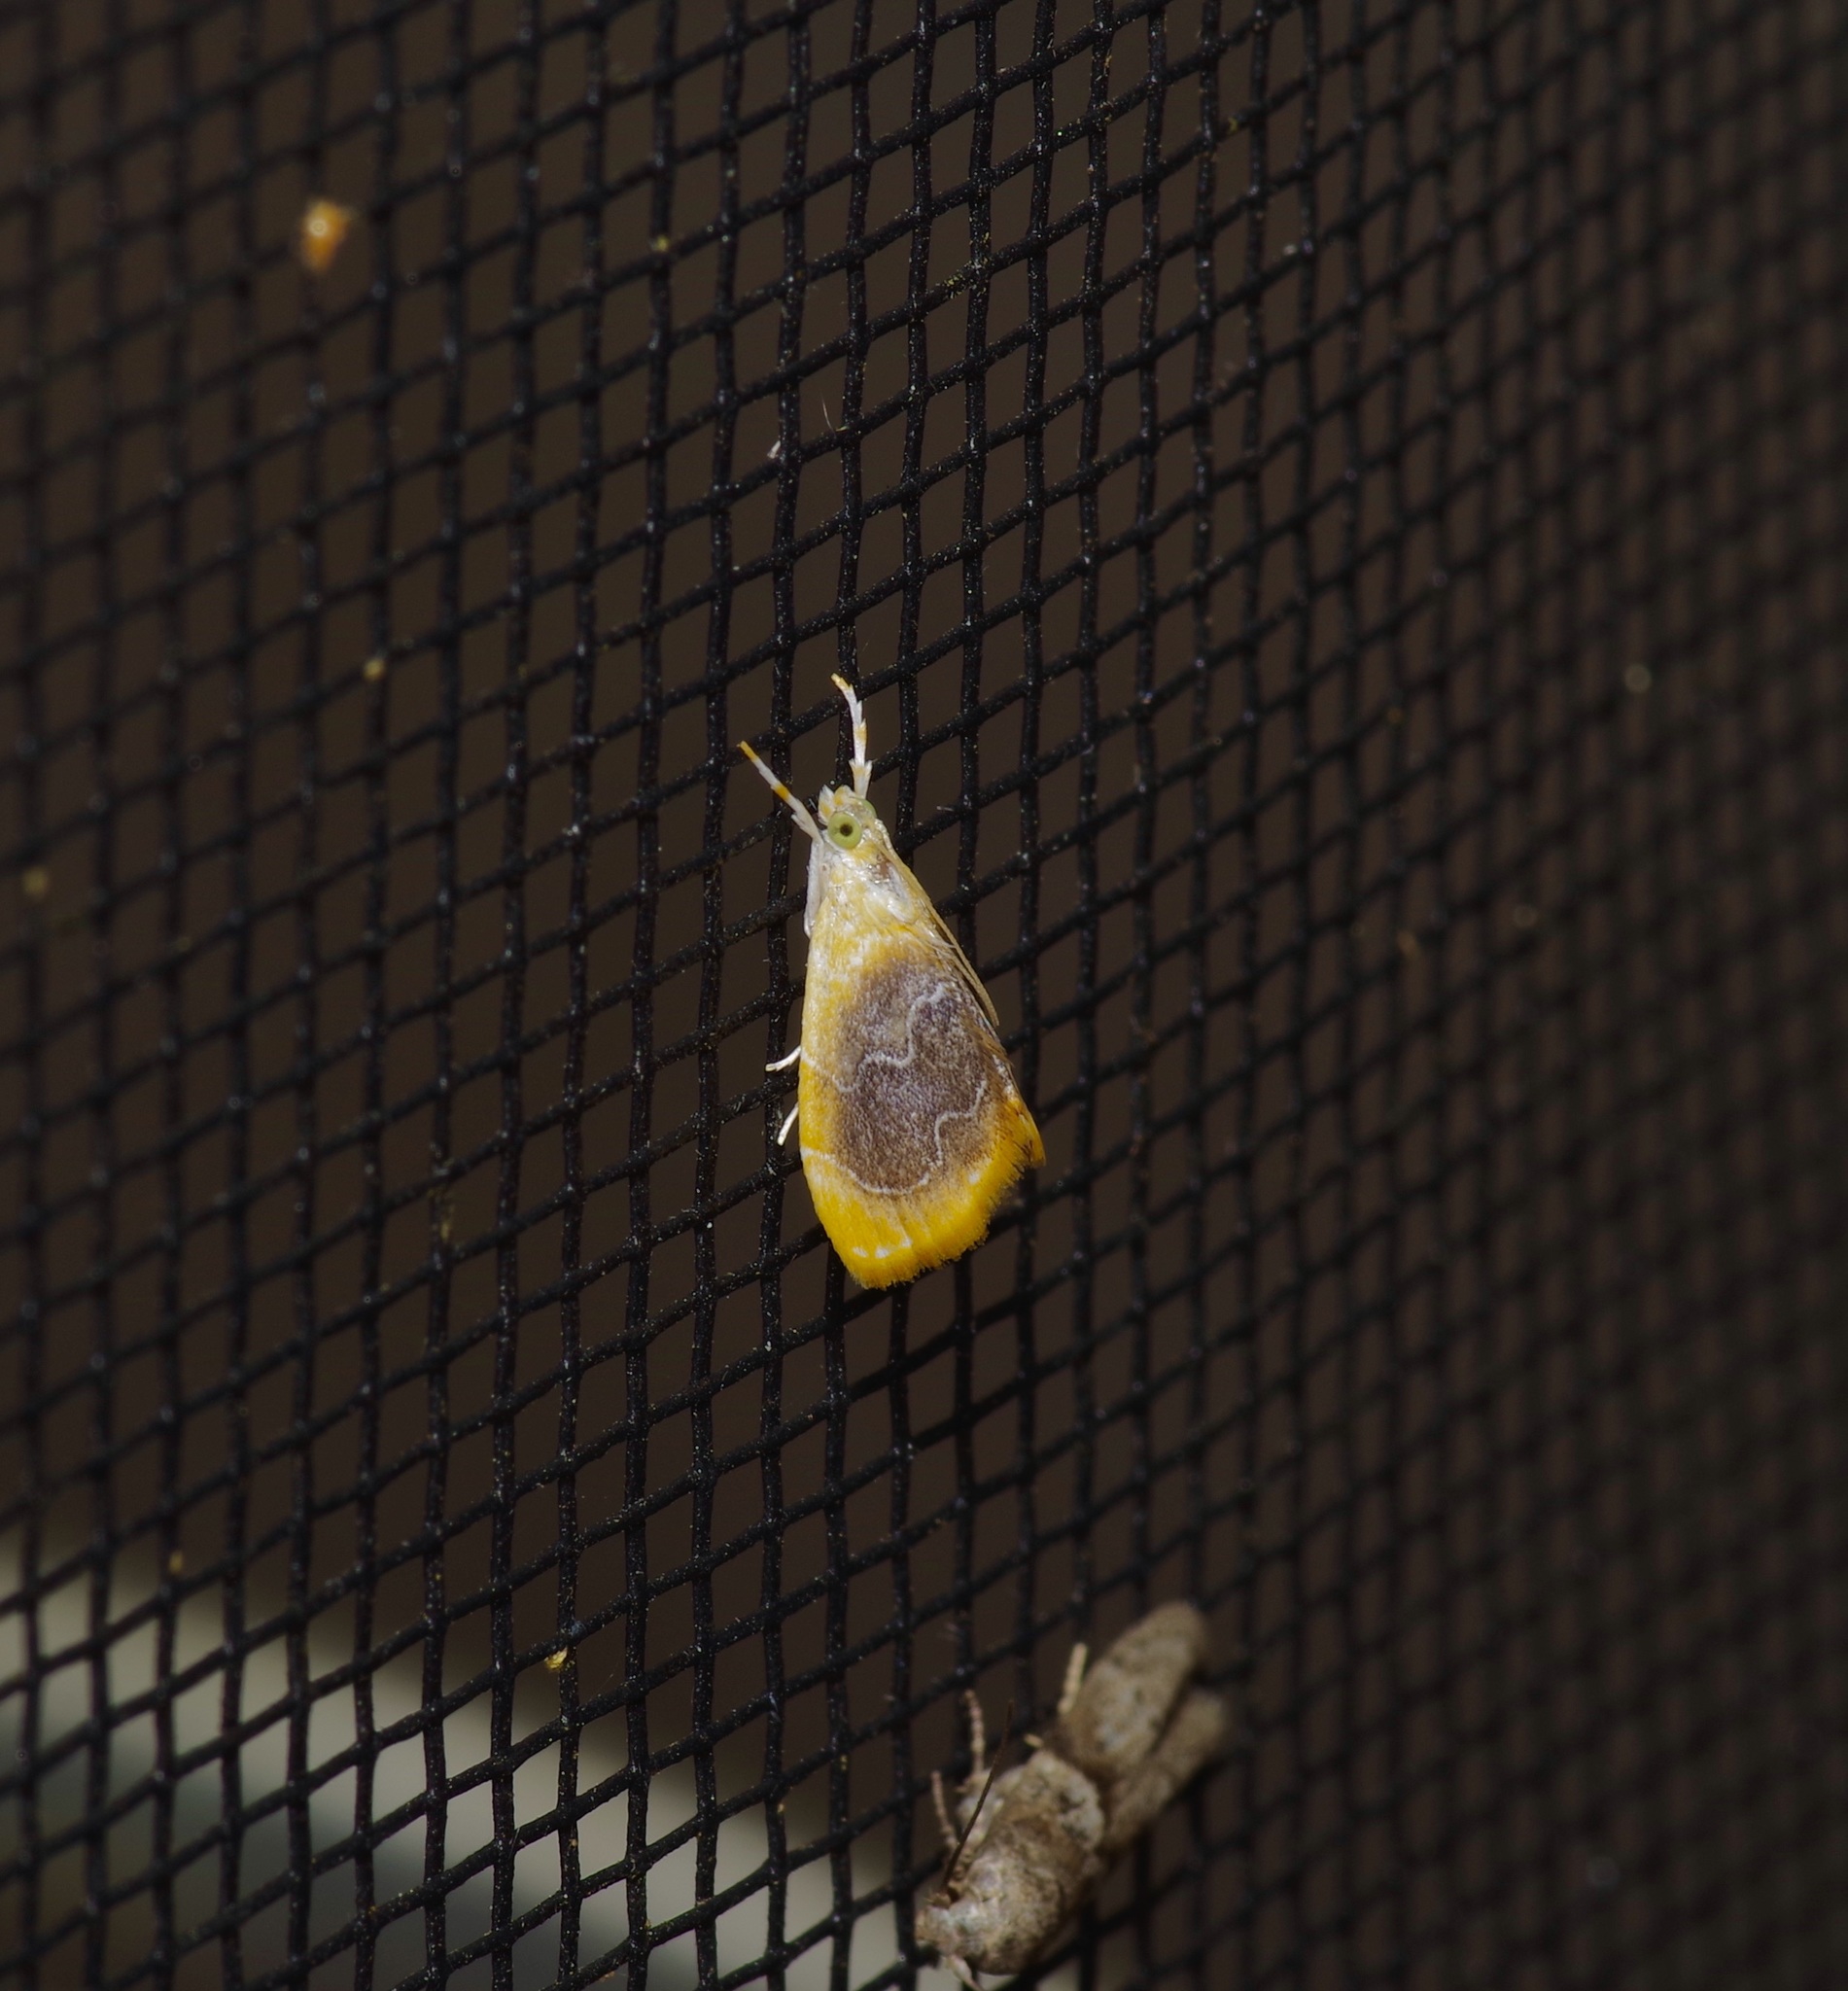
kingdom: Animalia
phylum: Arthropoda
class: Insecta
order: Lepidoptera
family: Crambidae
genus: Glaphyria
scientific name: Glaphyria fulminalis
